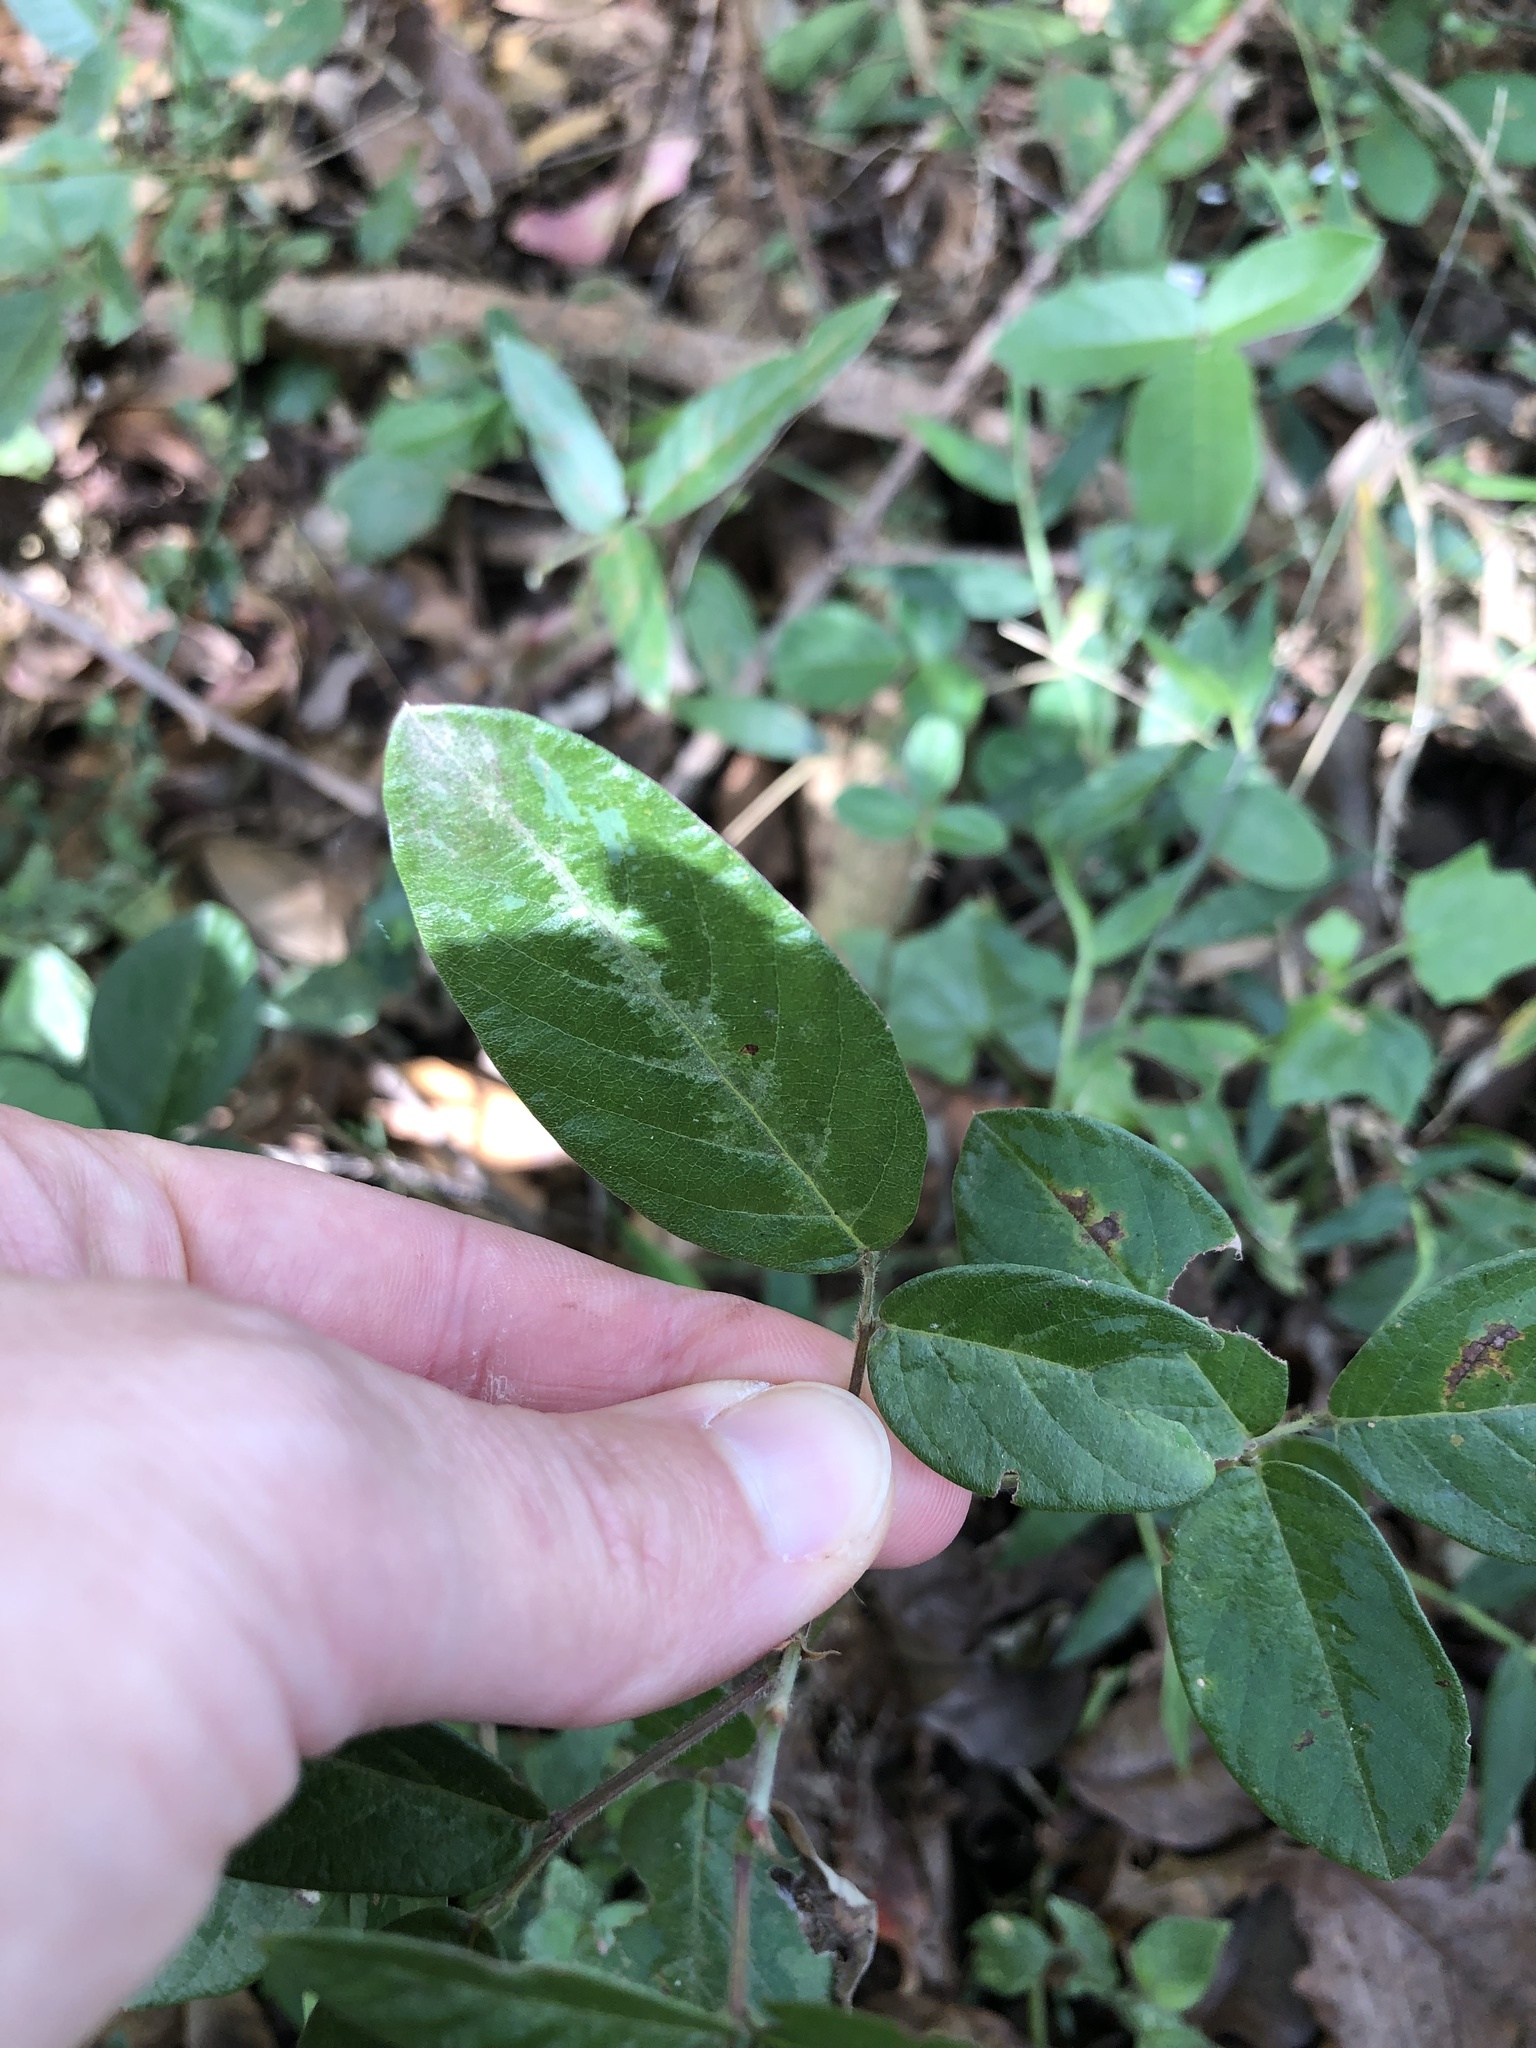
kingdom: Plantae
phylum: Tracheophyta
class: Magnoliopsida
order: Fabales
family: Fabaceae
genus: Desmodium
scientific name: Desmodium incanum
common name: Tickclover
